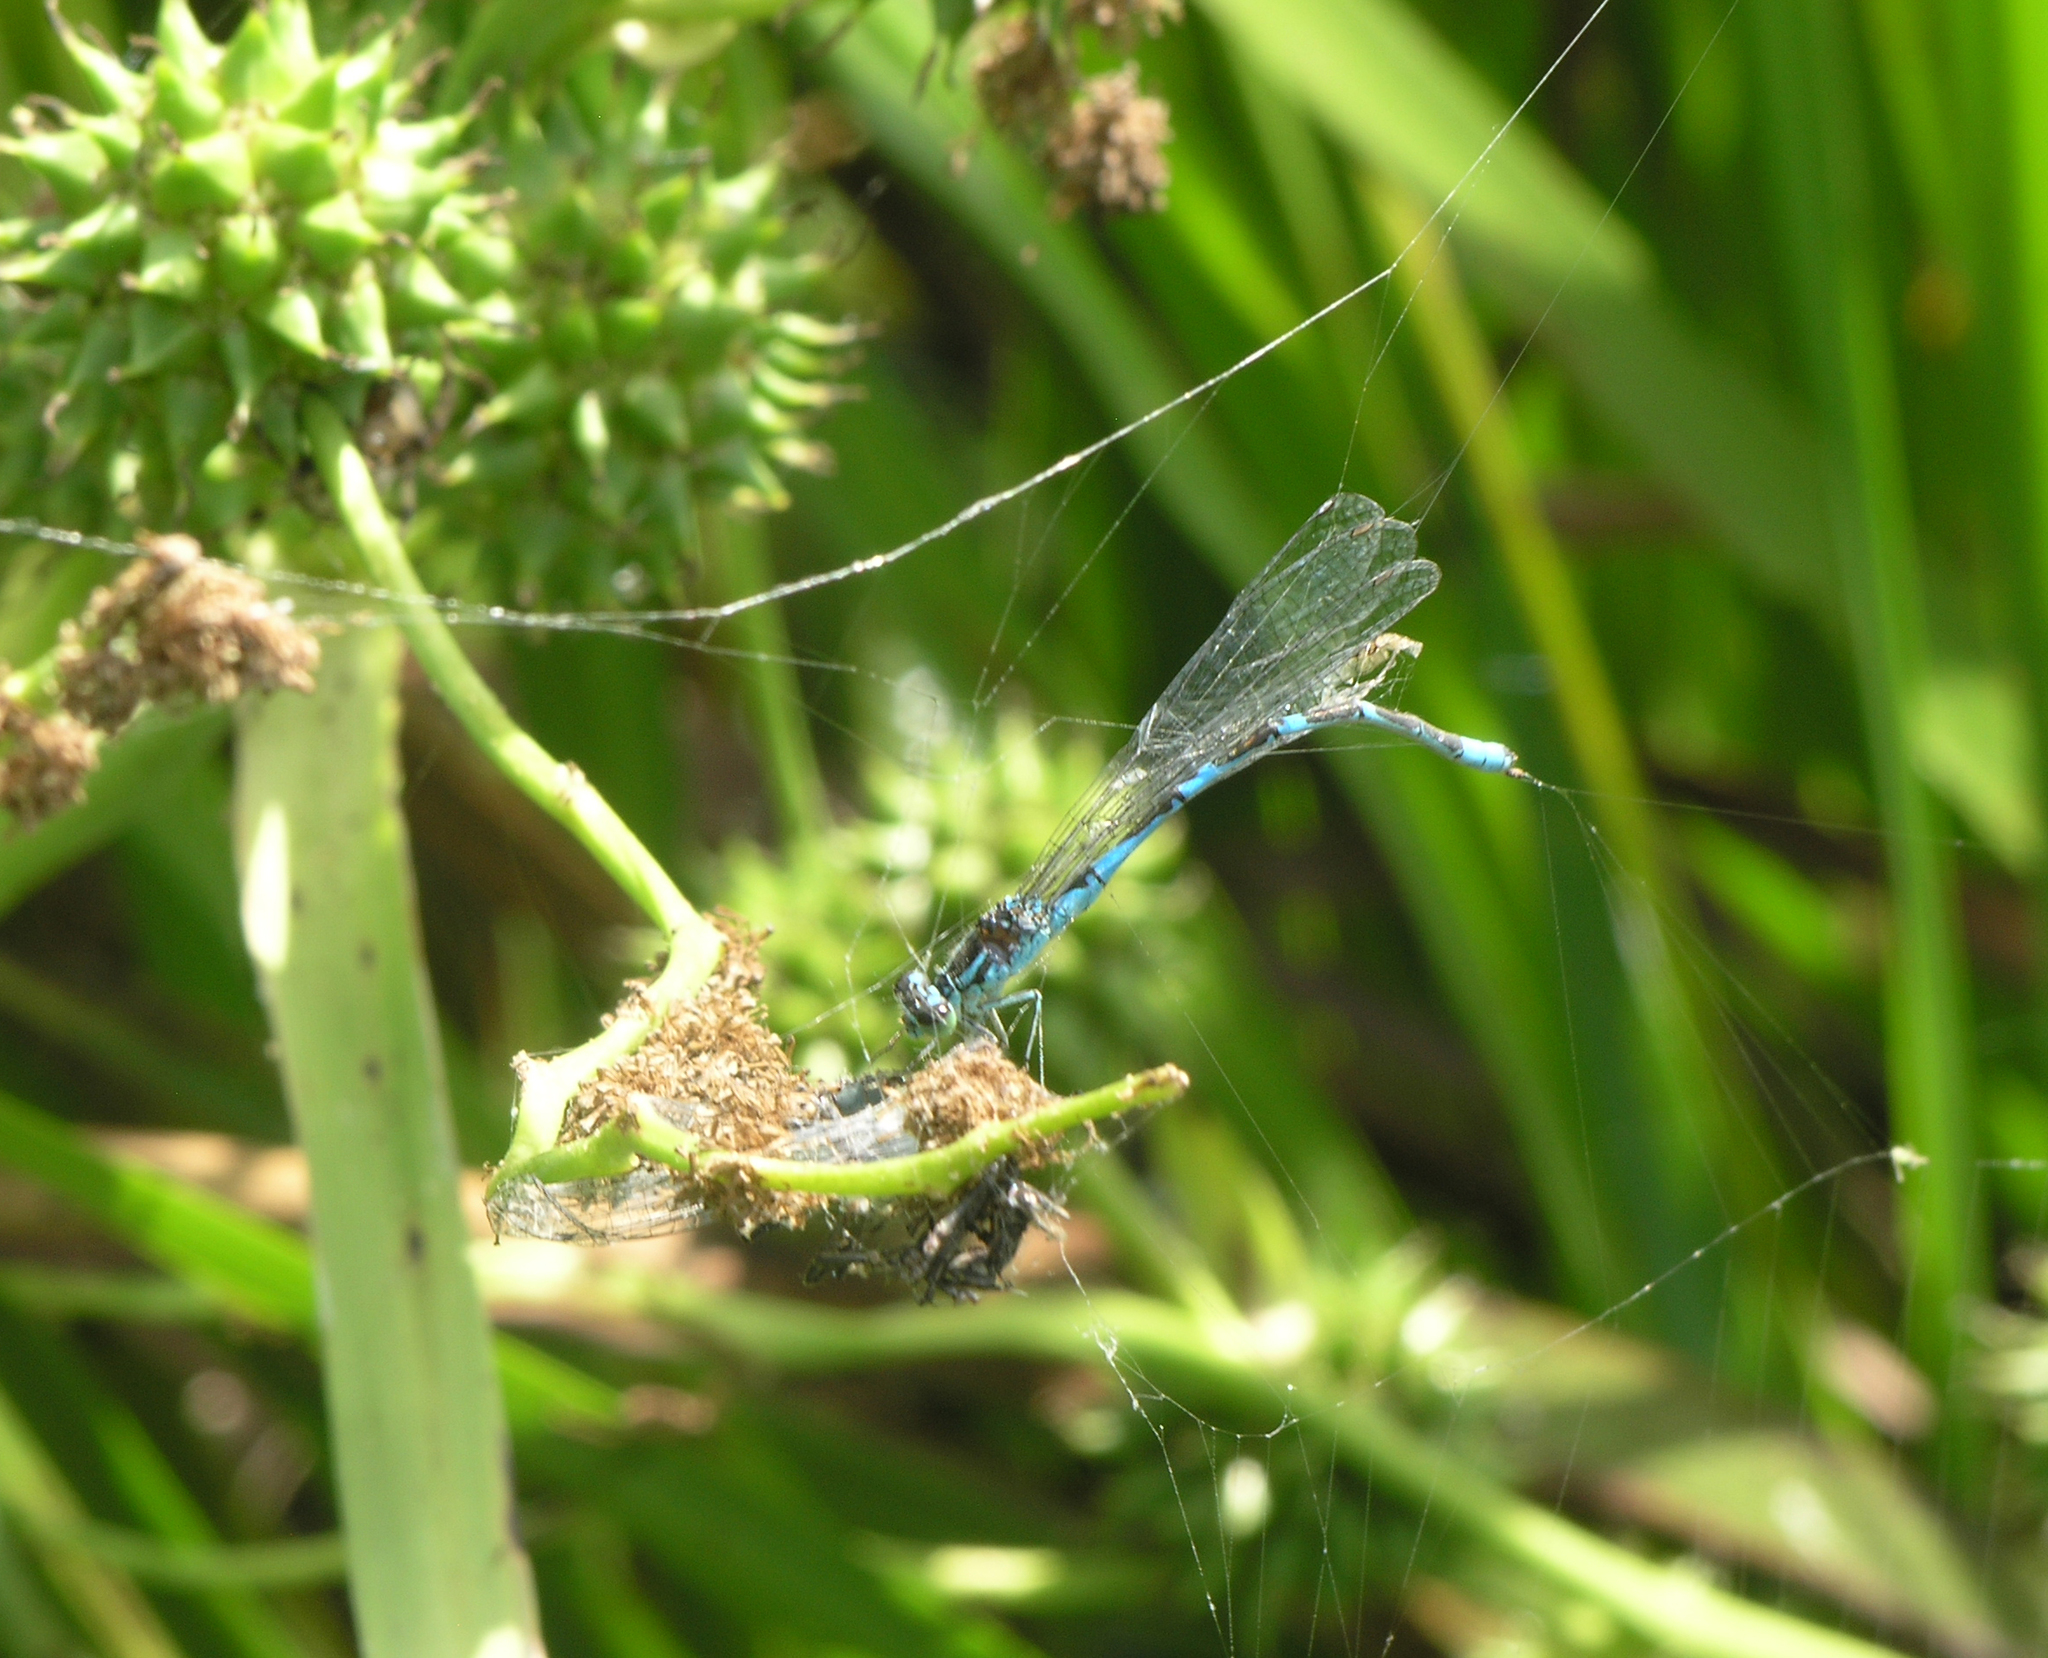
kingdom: Animalia
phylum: Arthropoda
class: Insecta
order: Odonata
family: Coenagrionidae
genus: Coenagrion
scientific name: Coenagrion lanceolatum
